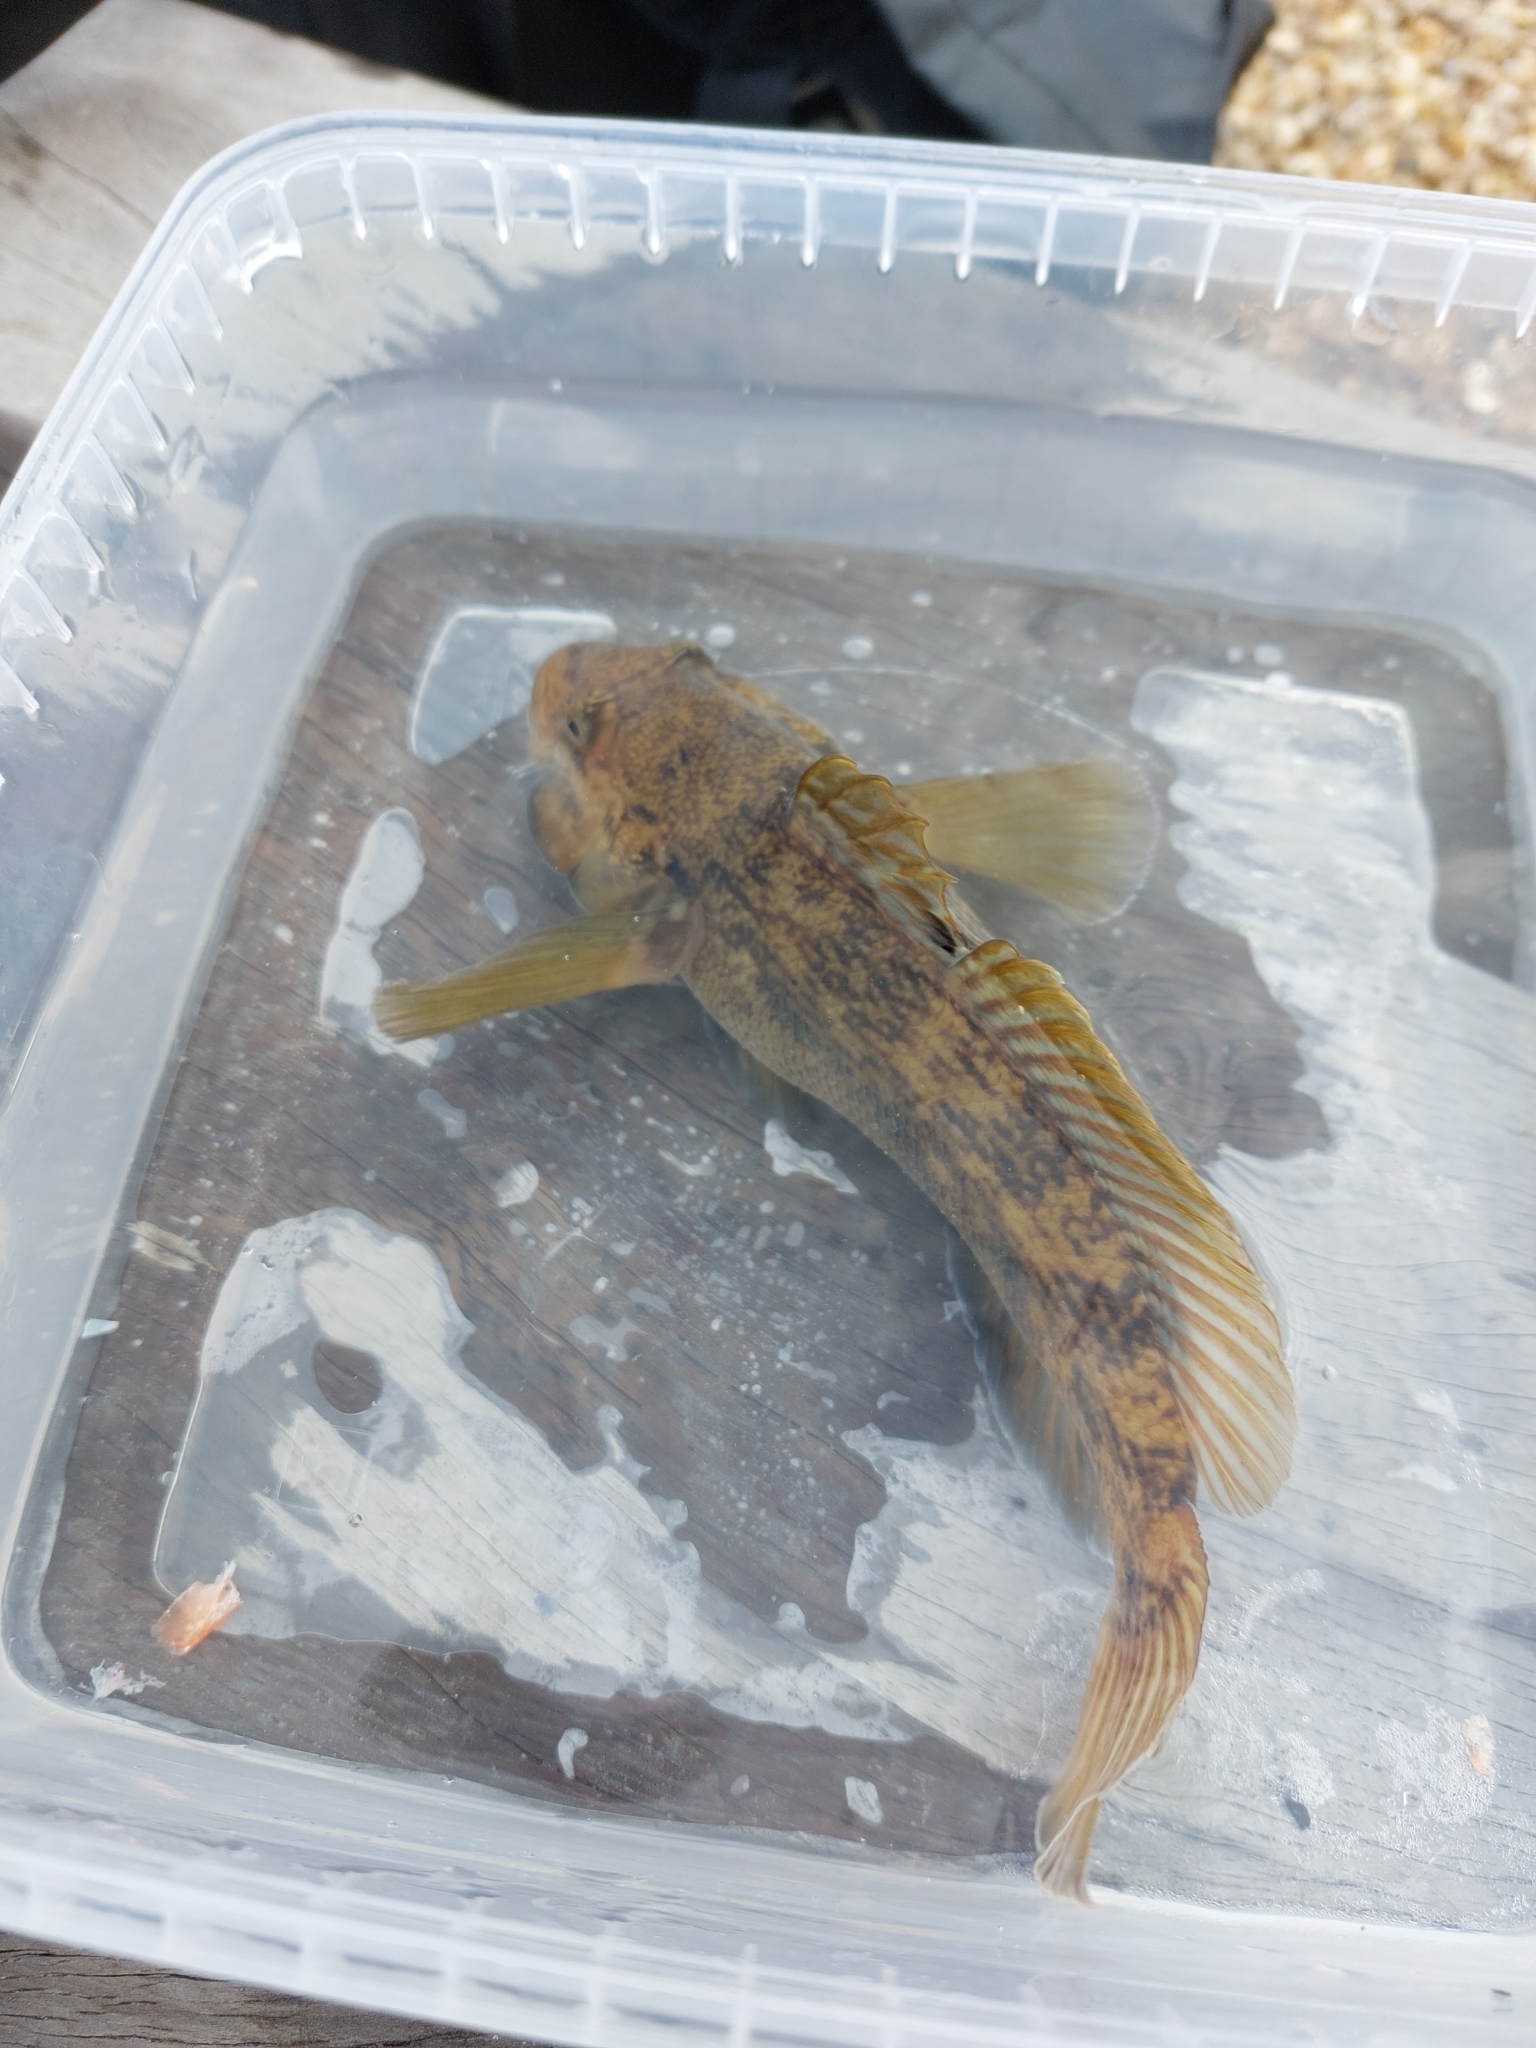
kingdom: Animalia
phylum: Chordata
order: Perciformes
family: Gobiidae
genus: Neogobius
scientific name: Neogobius melanostomus
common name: Round goby
